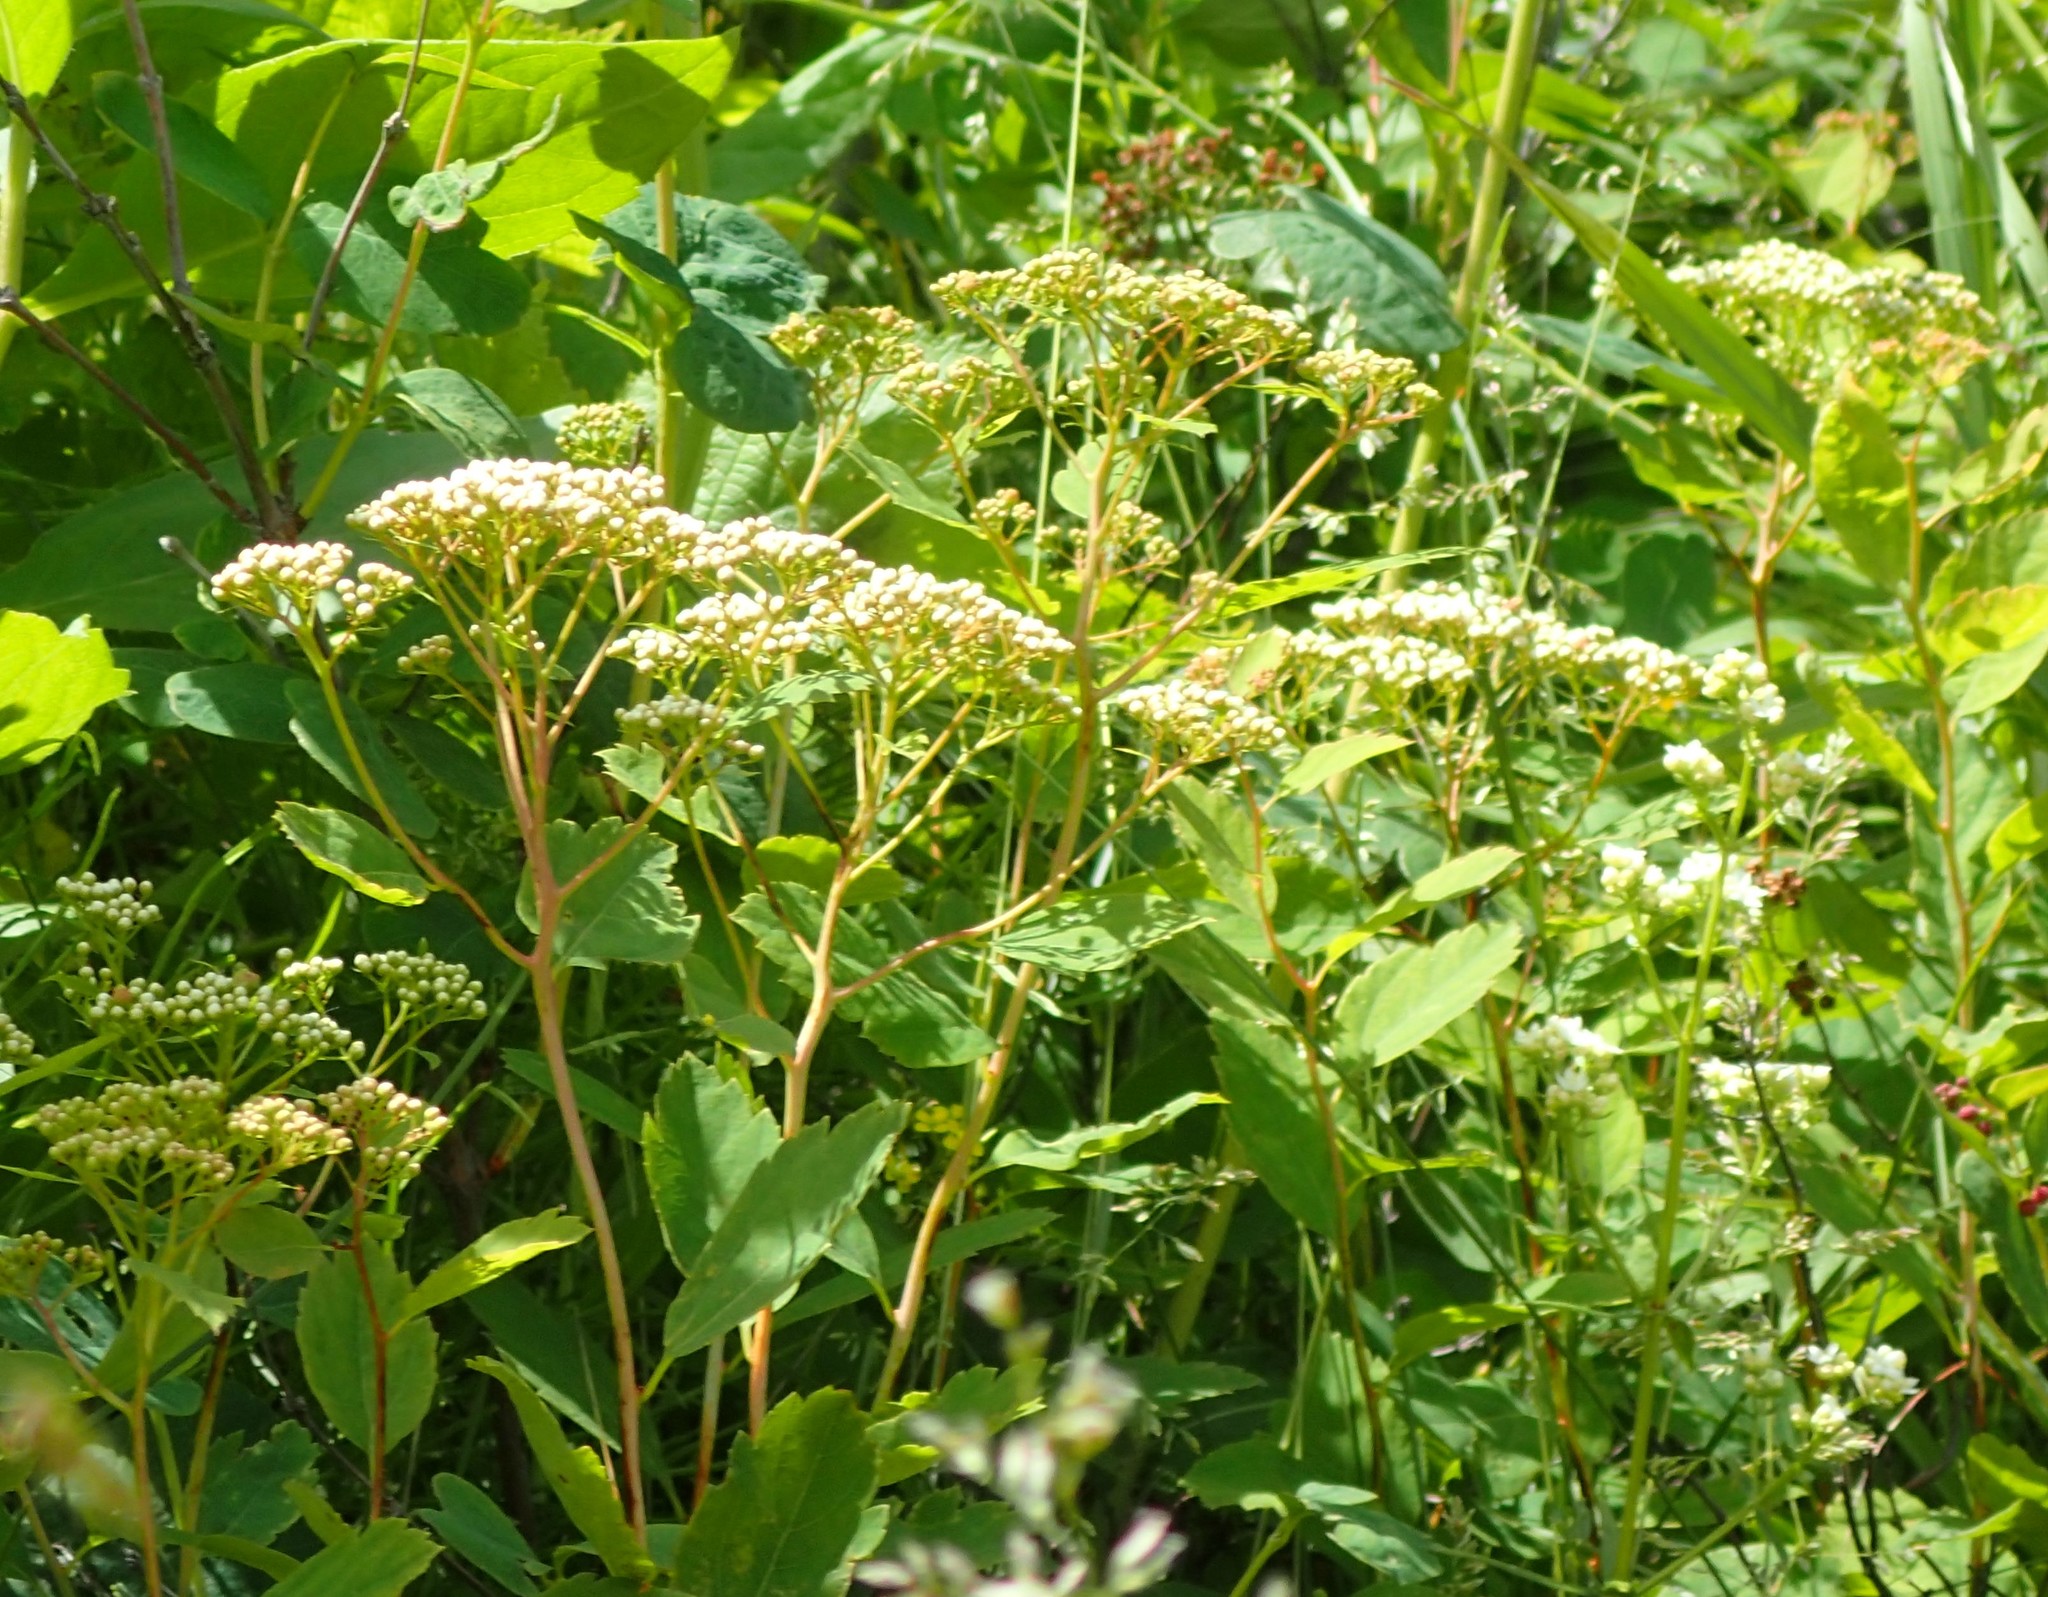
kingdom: Plantae
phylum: Tracheophyta
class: Magnoliopsida
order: Rosales
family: Rosaceae
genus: Spiraea
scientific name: Spiraea lucida
